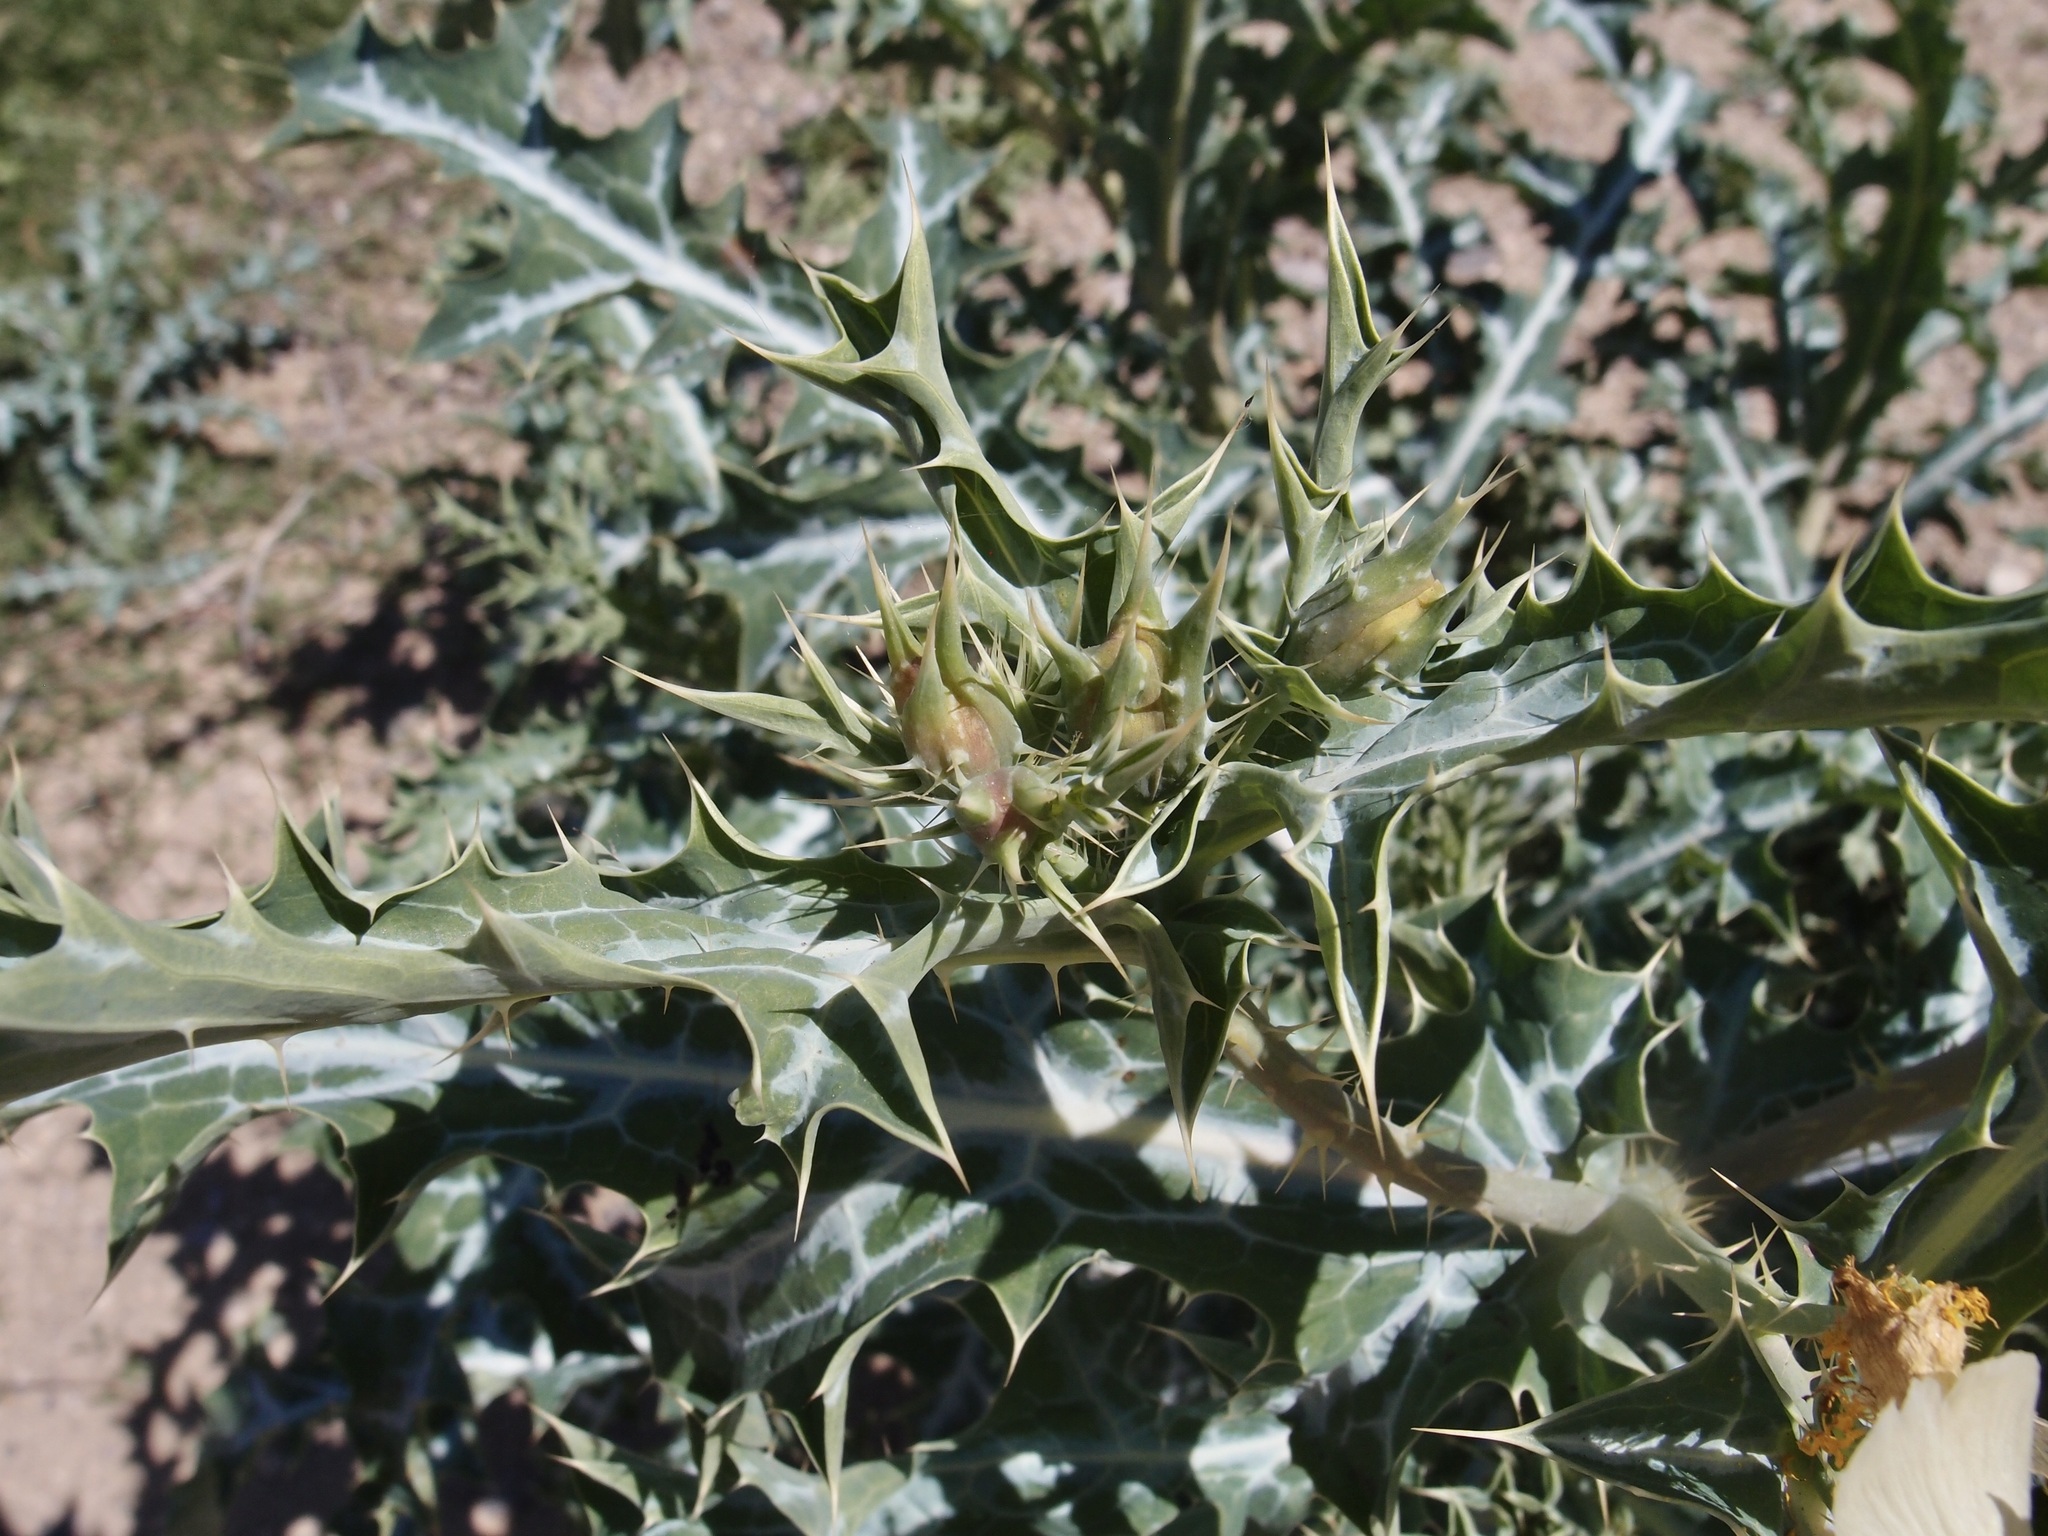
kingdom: Plantae
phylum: Tracheophyta
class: Magnoliopsida
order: Ranunculales
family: Papaveraceae
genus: Argemone
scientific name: Argemone ochroleuca
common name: White-flower mexican-poppy
